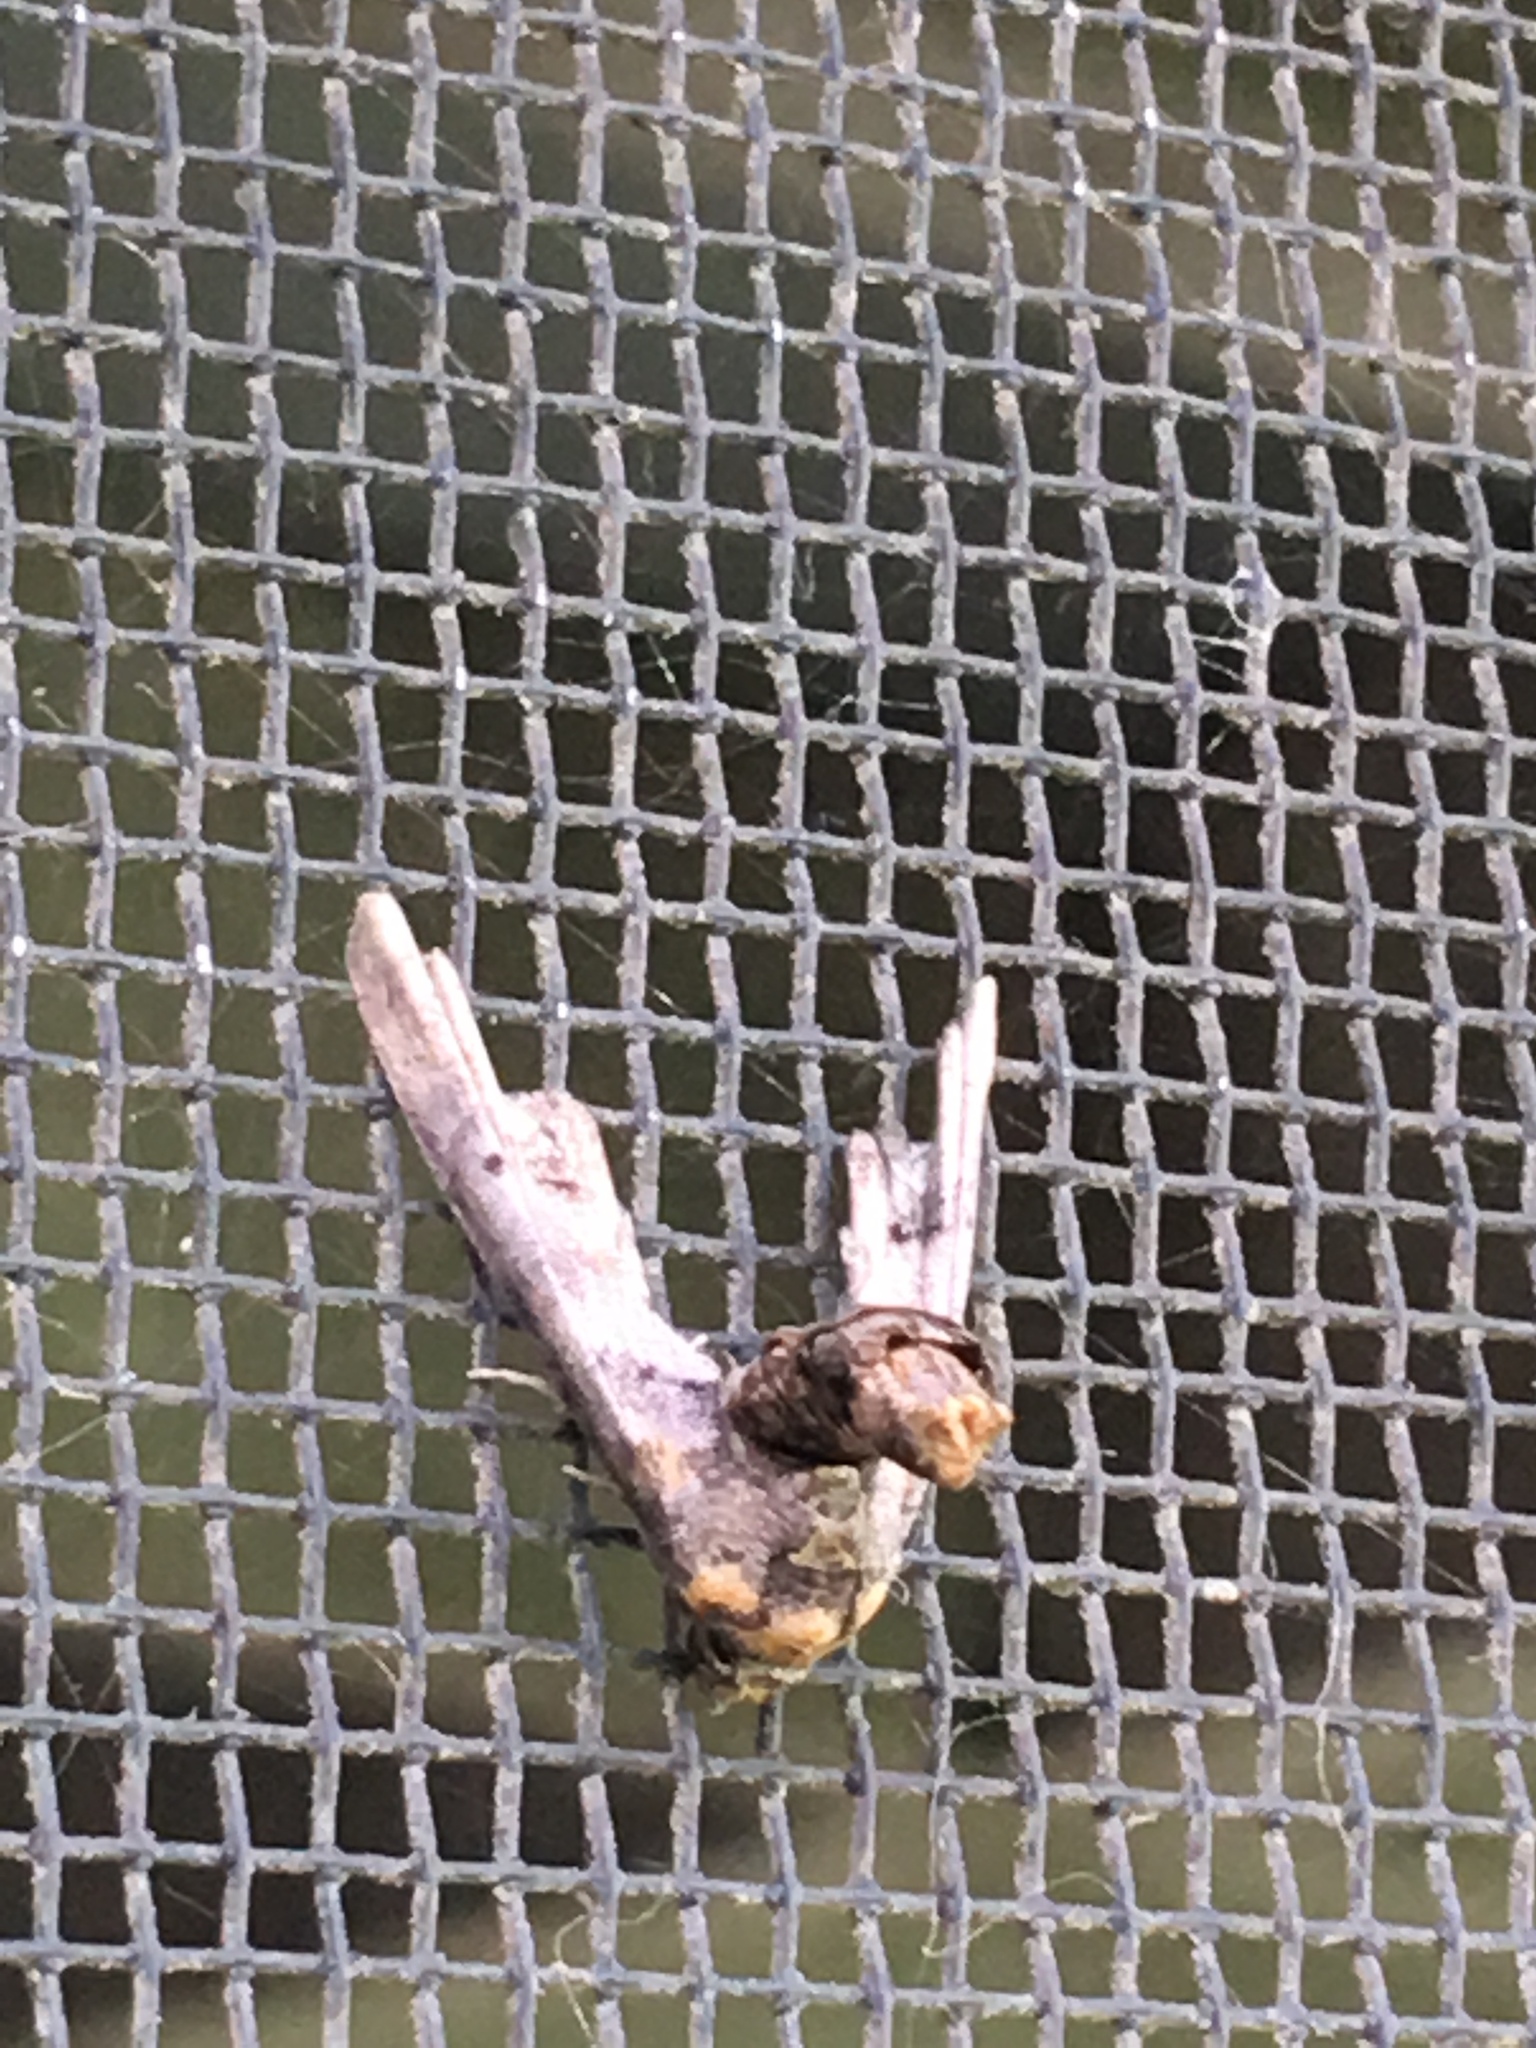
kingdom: Animalia
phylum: Arthropoda
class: Insecta
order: Lepidoptera
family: Euteliidae
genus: Marathyssa
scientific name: Marathyssa inficita
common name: Dark marathyssa moth
